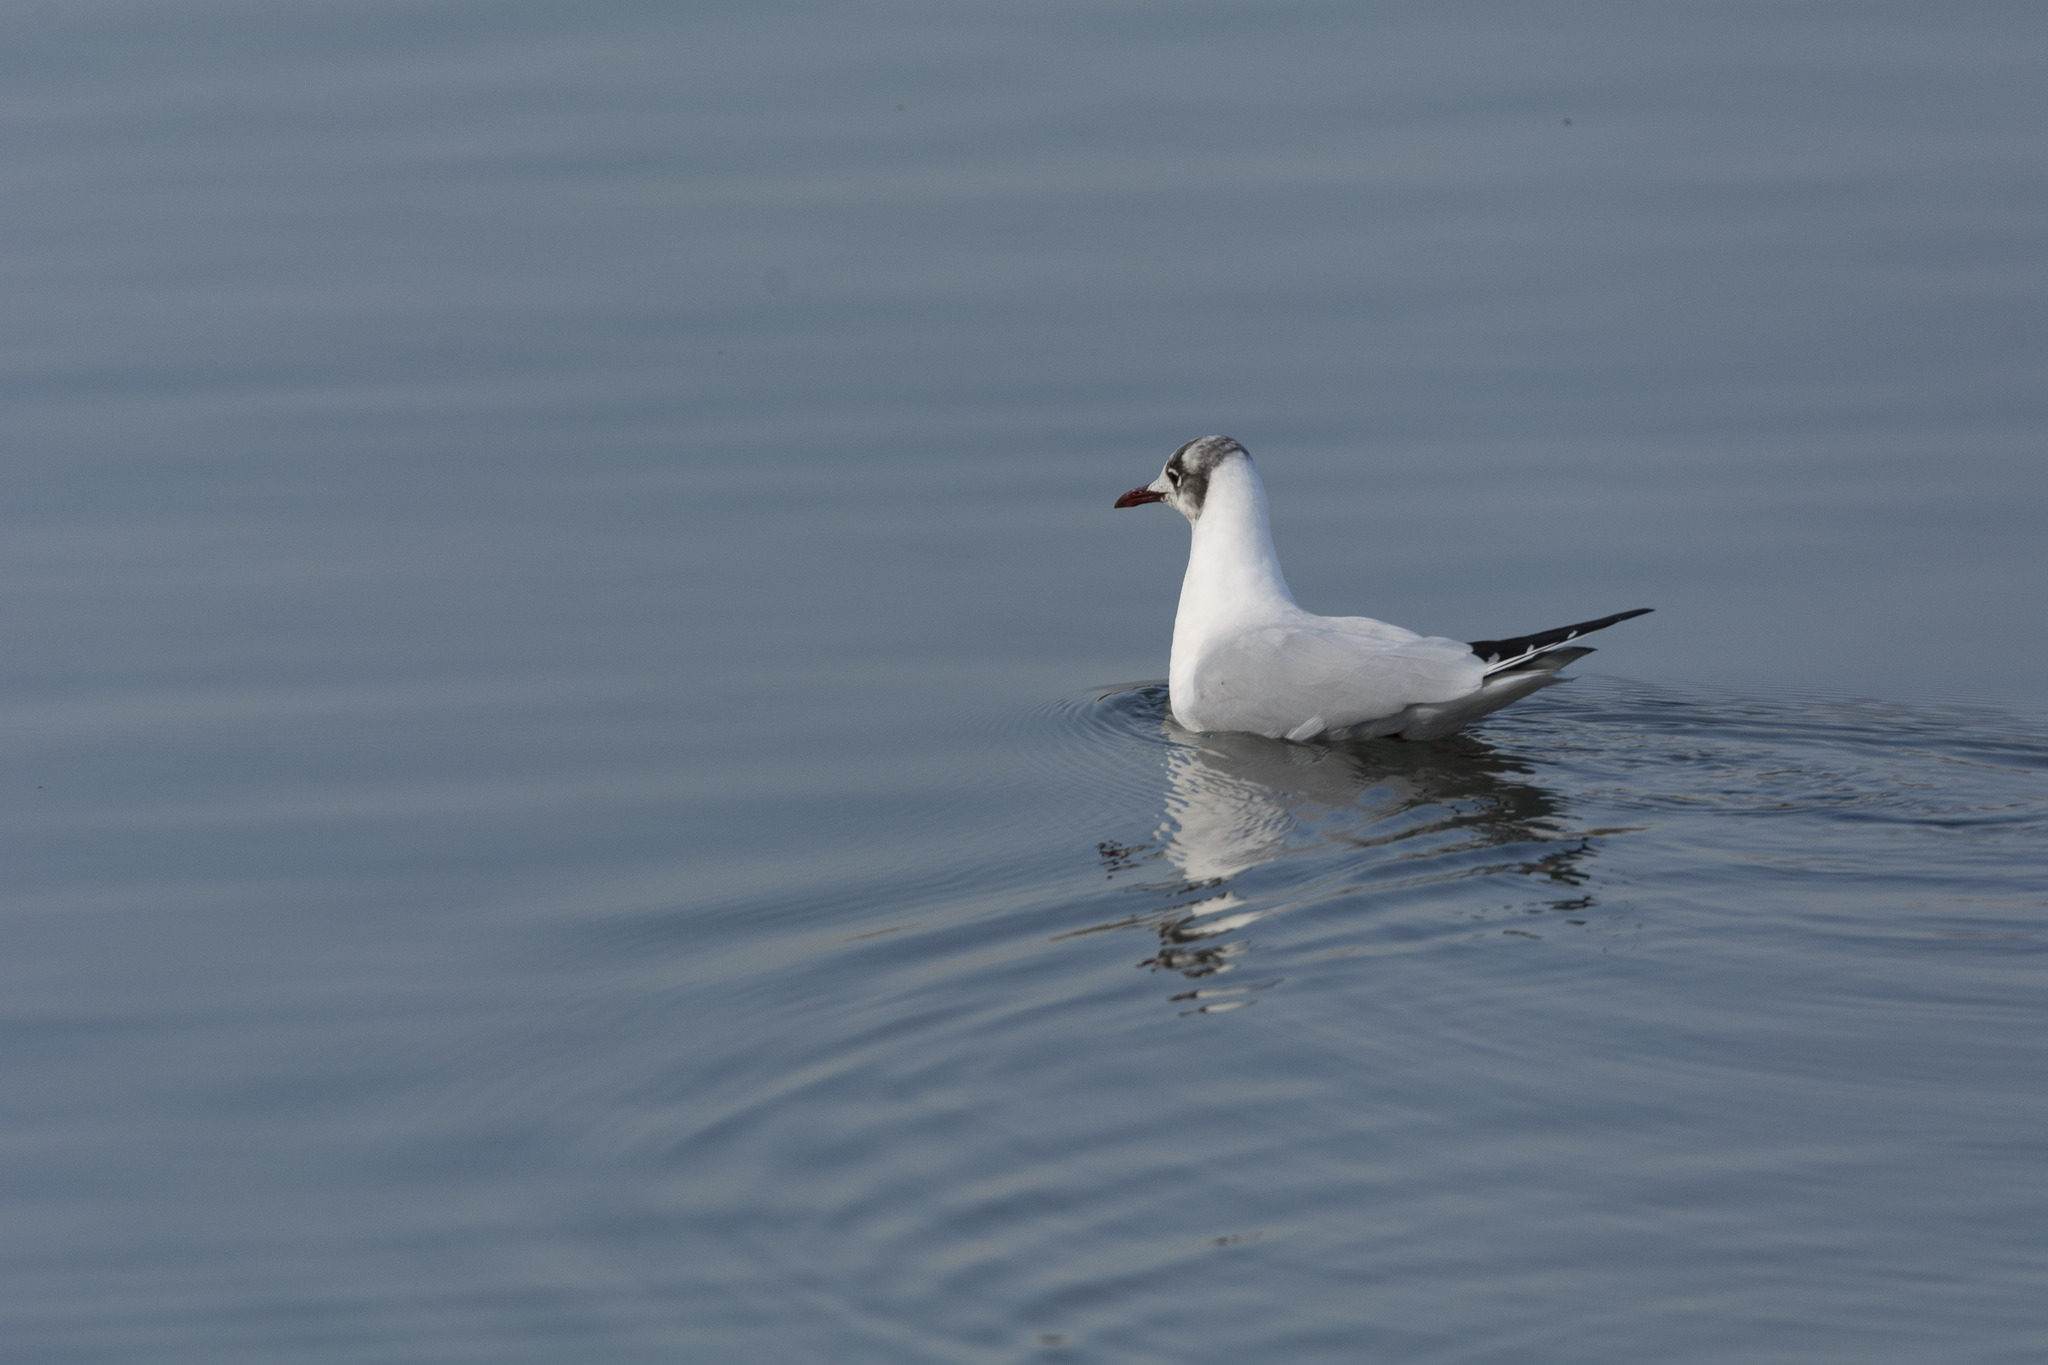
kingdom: Animalia
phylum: Chordata
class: Aves
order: Charadriiformes
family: Laridae
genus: Chroicocephalus
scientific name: Chroicocephalus ridibundus
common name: Black-headed gull
